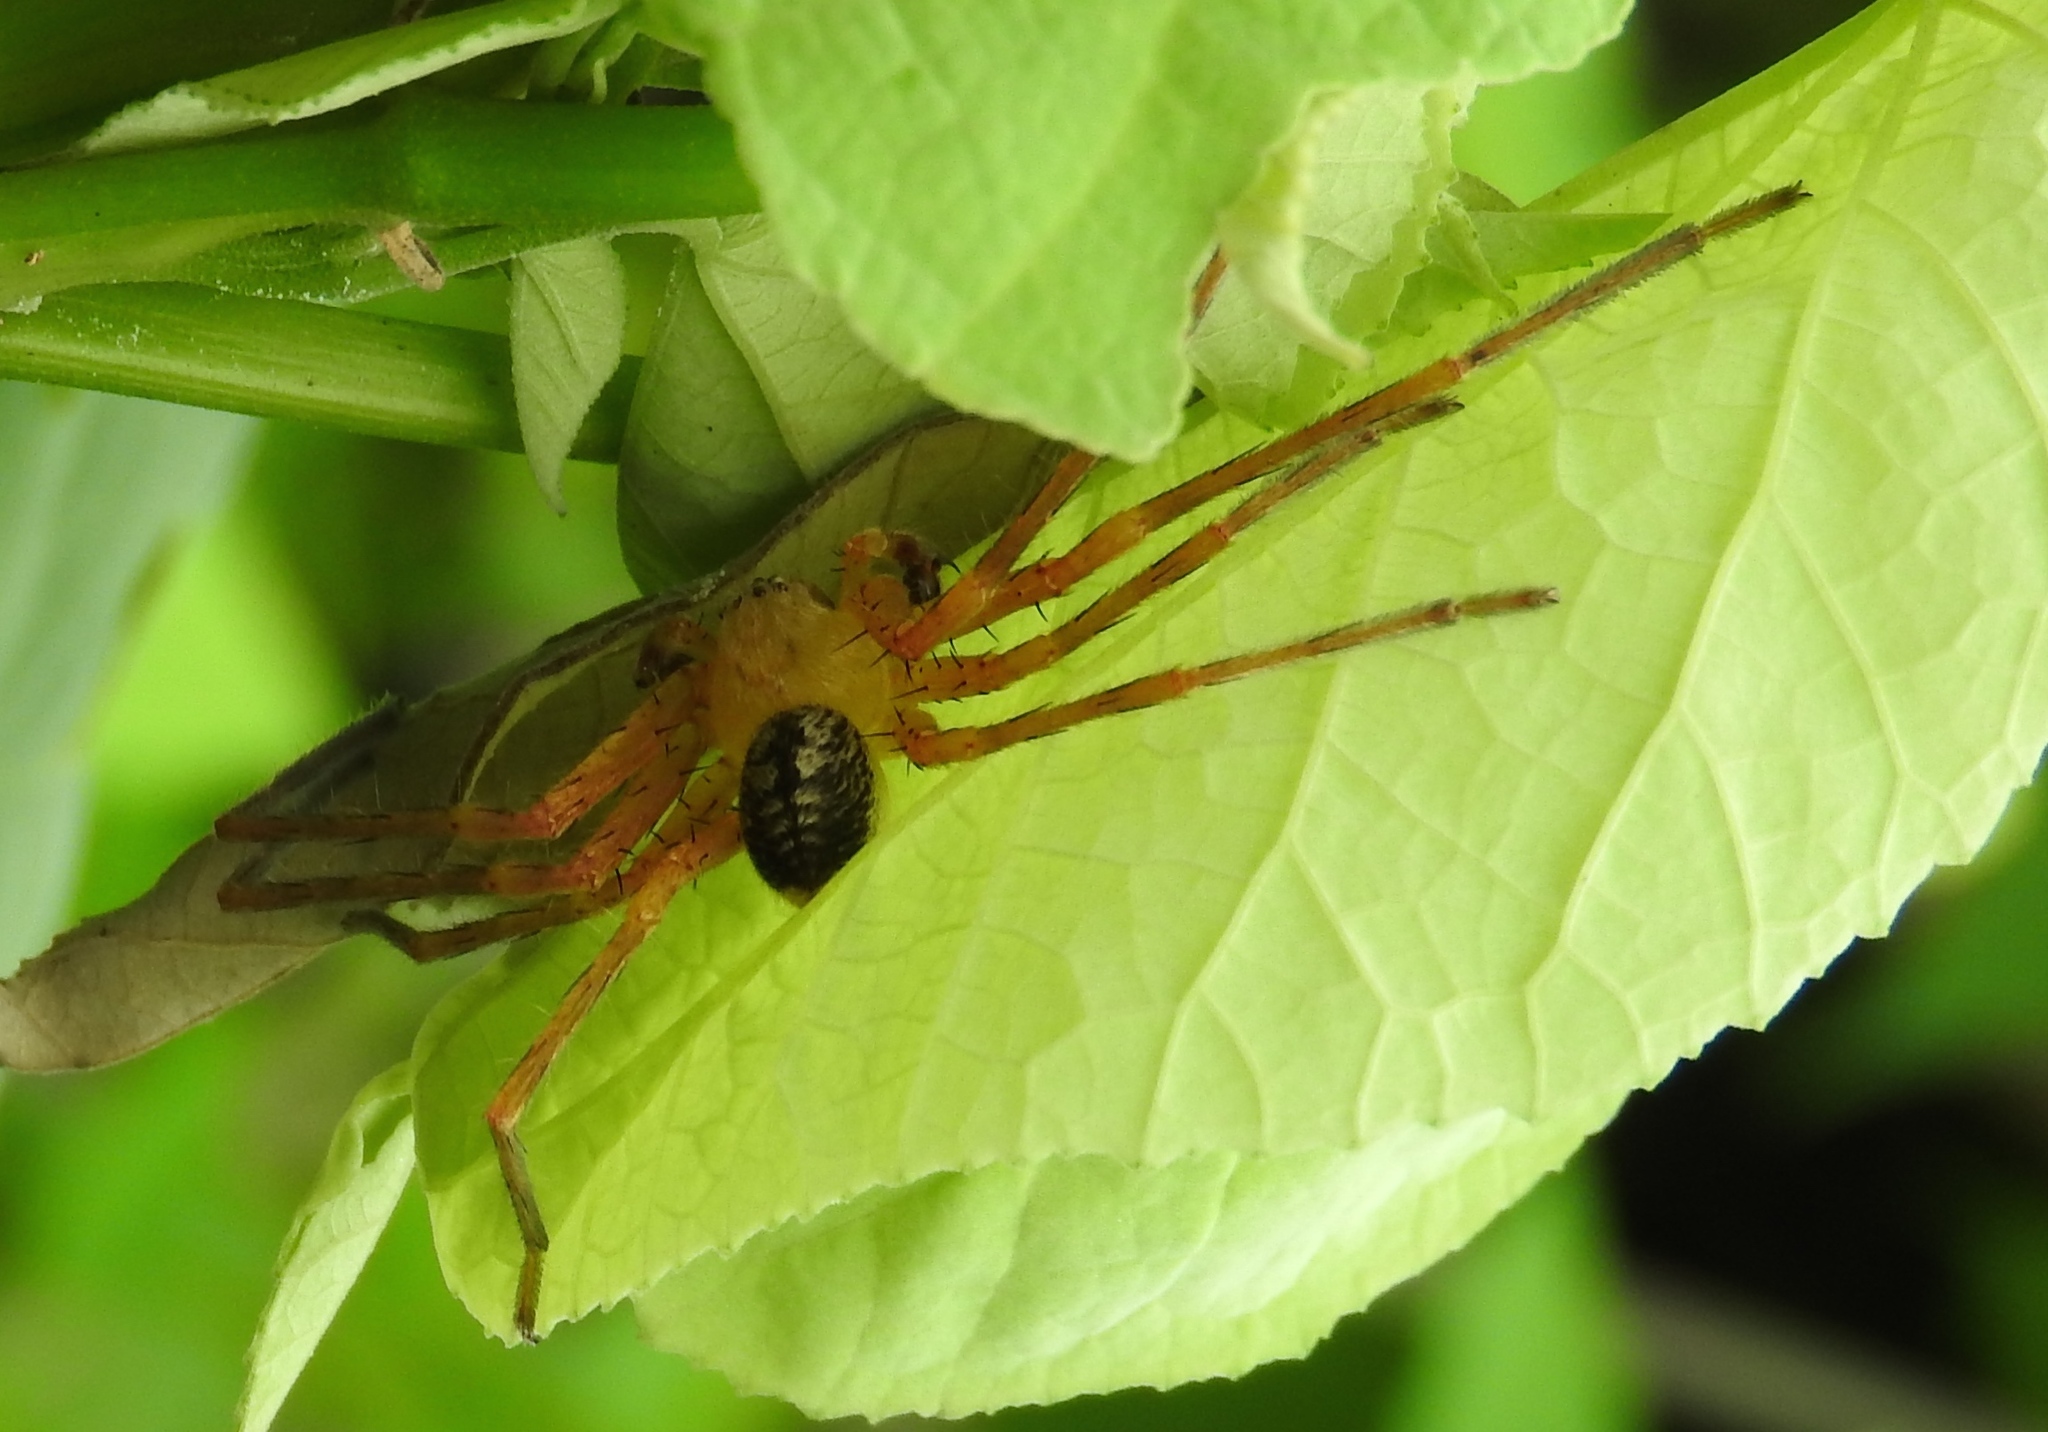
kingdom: Animalia
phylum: Arthropoda
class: Arachnida
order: Araneae
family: Sparassidae
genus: Curicaberis
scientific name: Curicaberis culiacan
